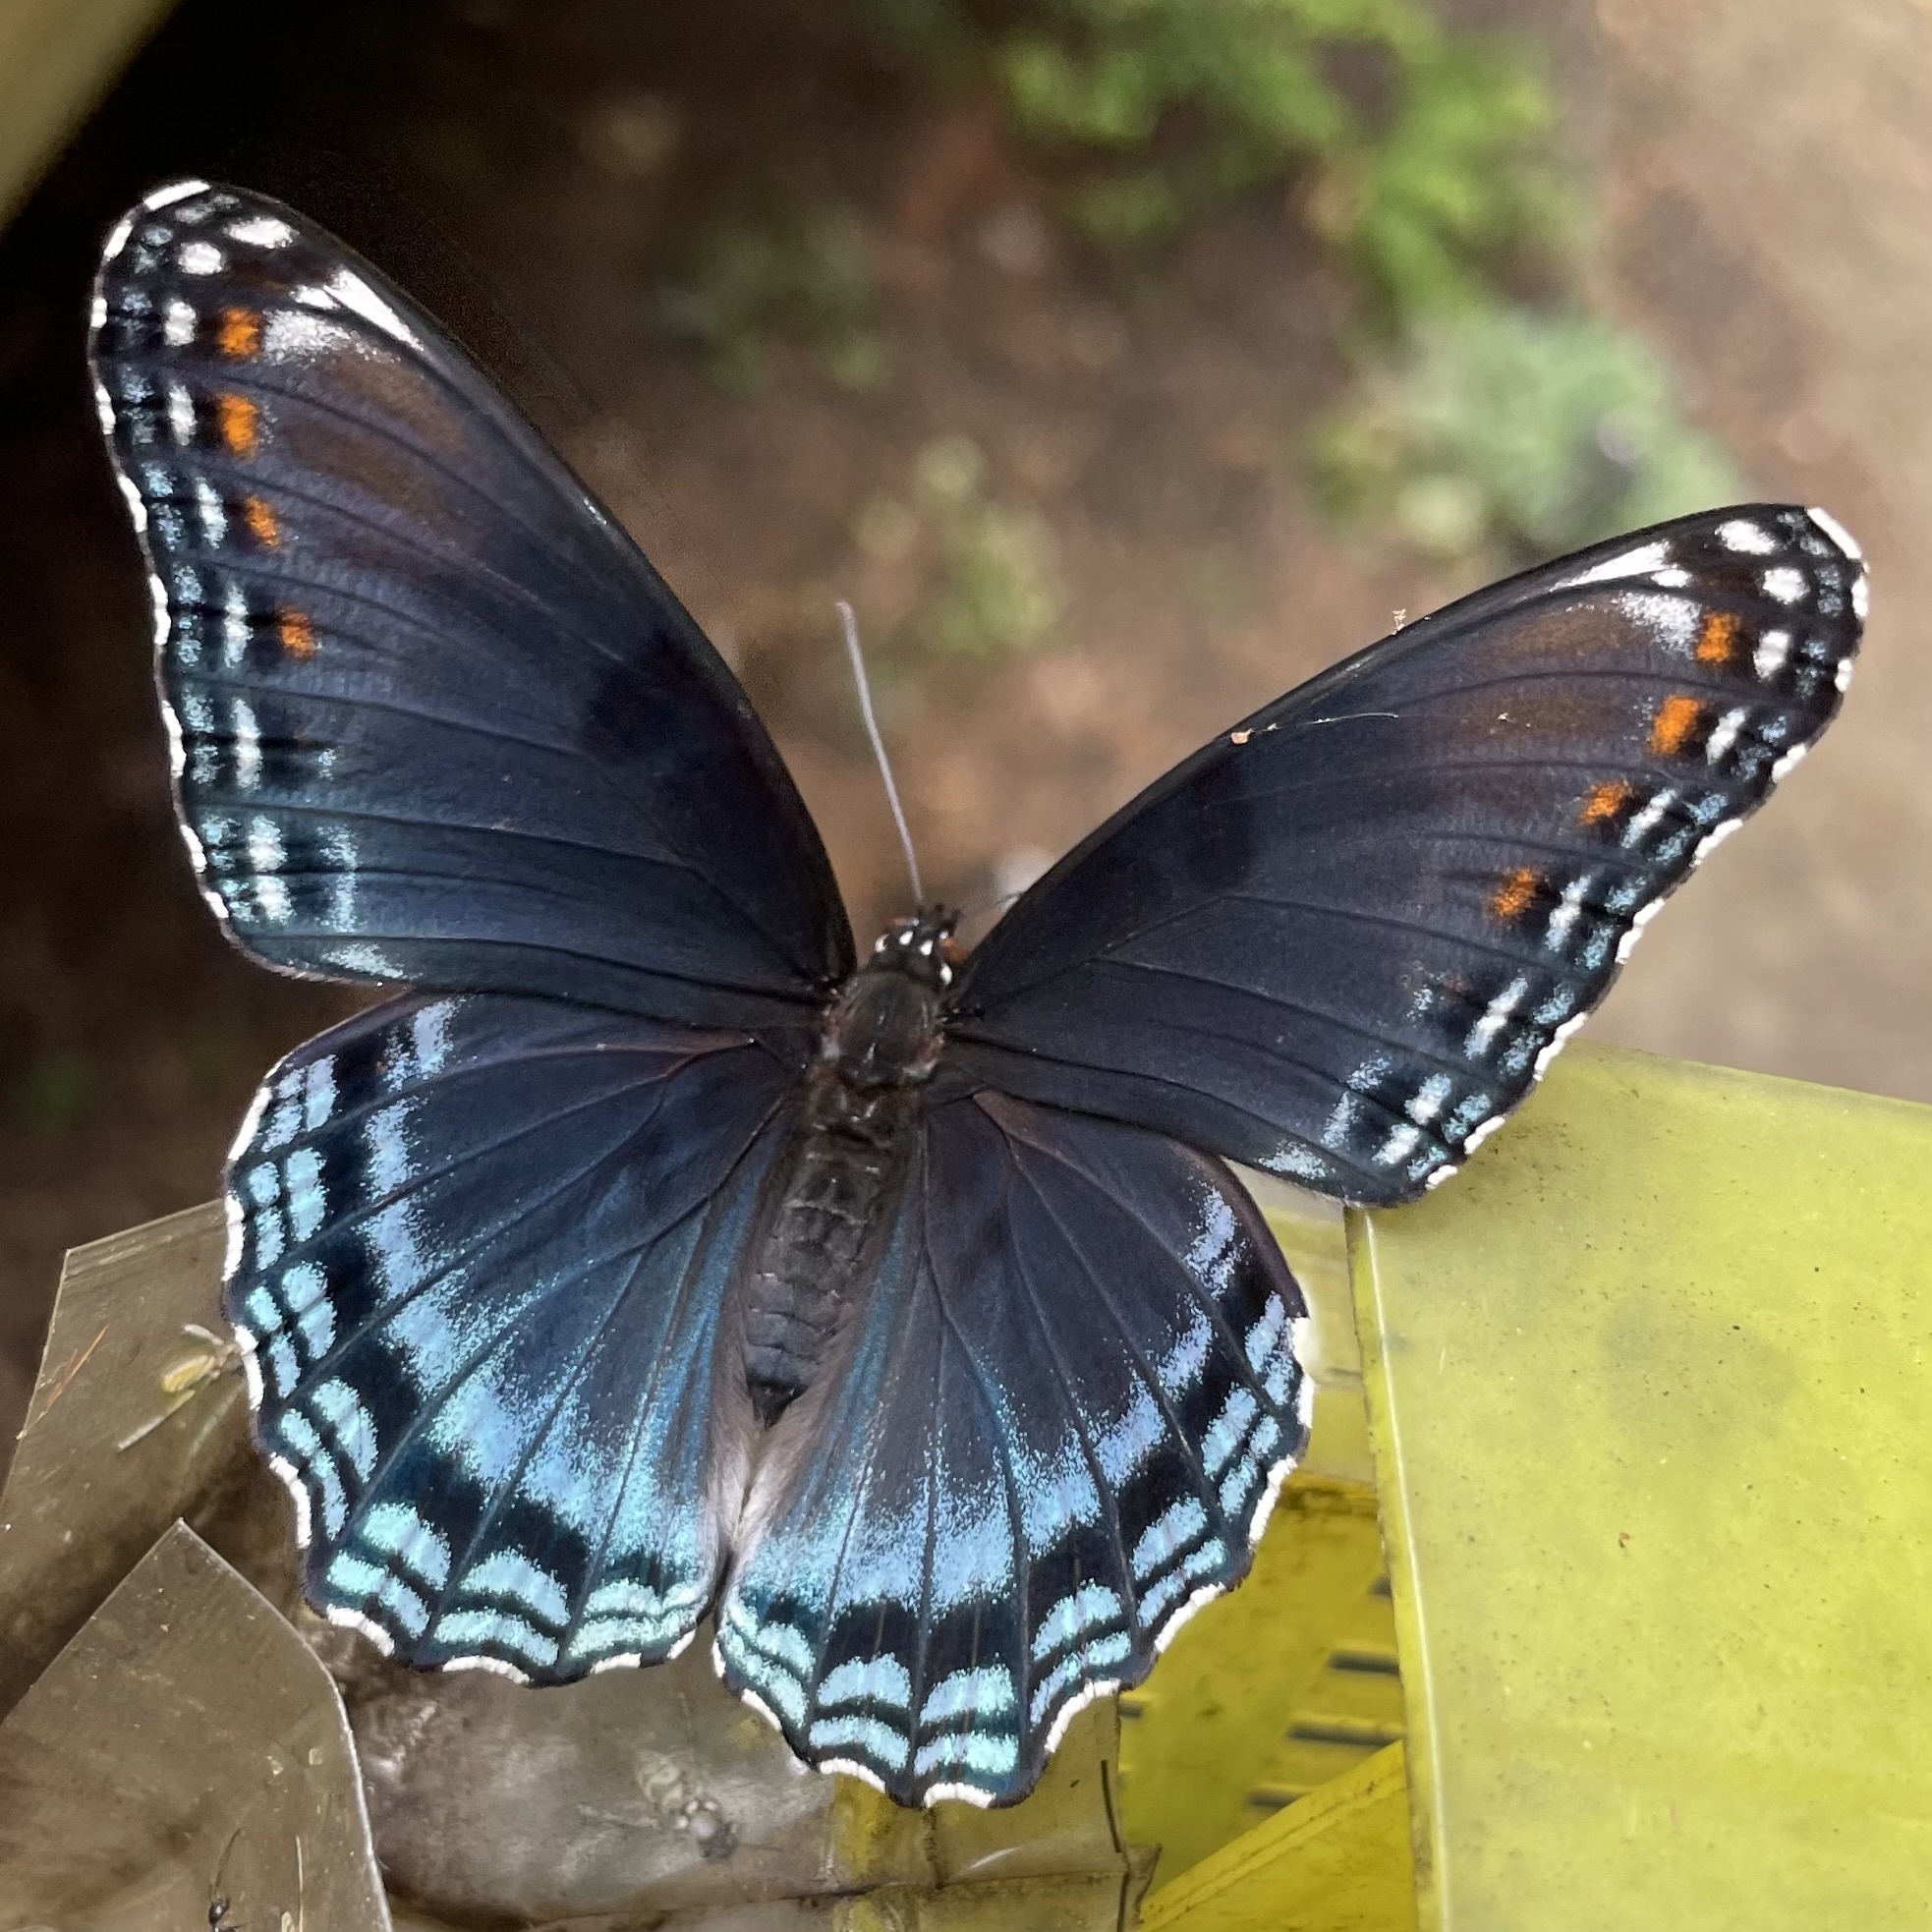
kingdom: Animalia
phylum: Arthropoda
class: Insecta
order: Lepidoptera
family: Nymphalidae
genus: Limenitis
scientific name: Limenitis astyanax
